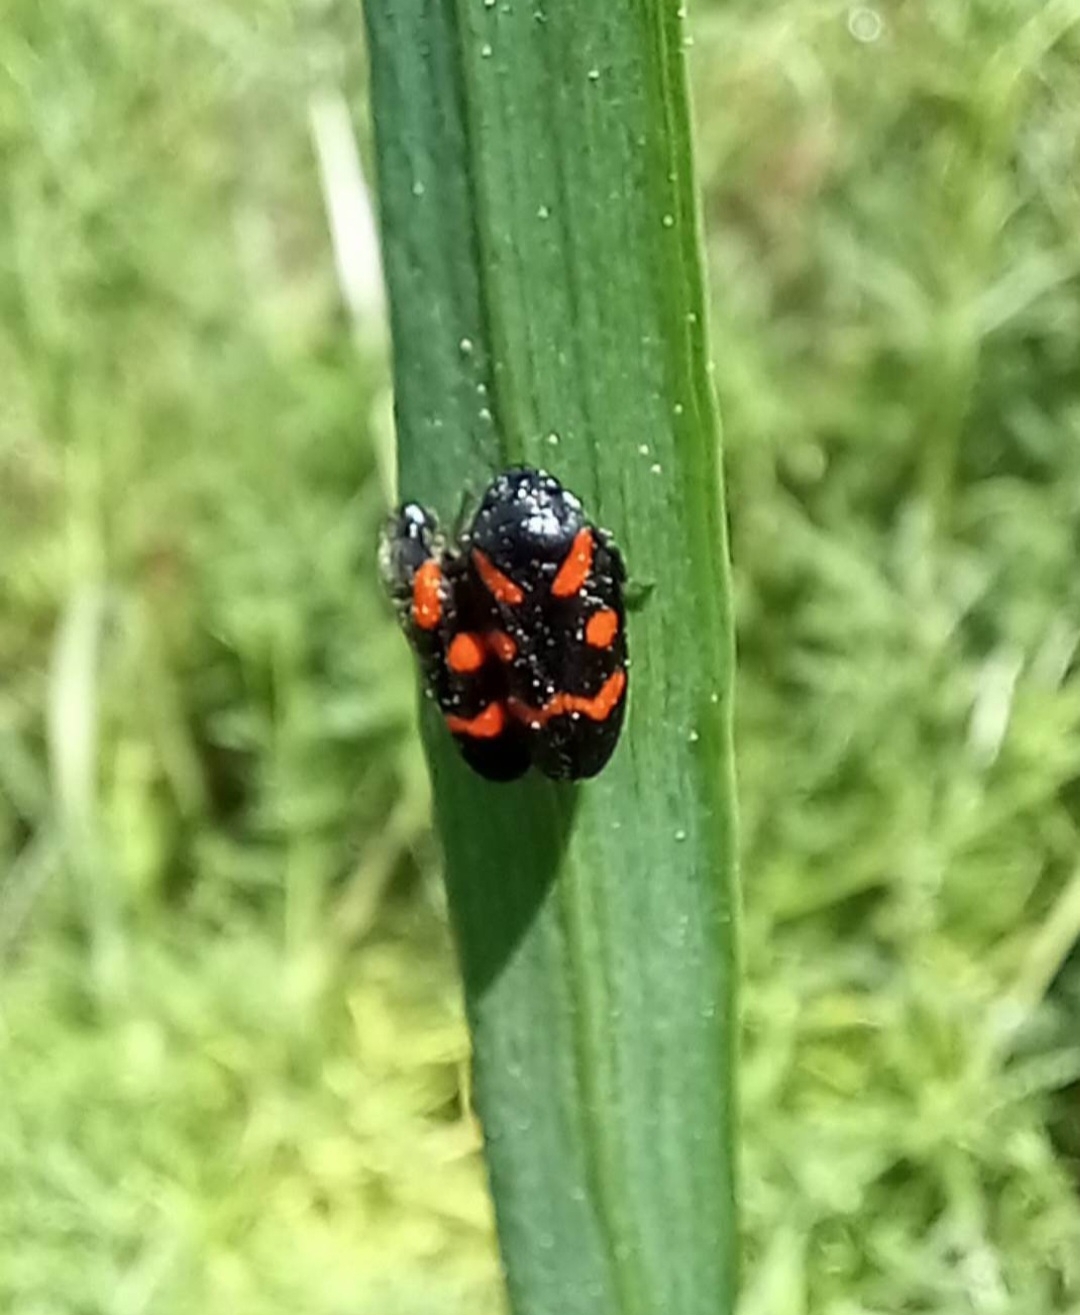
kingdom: Animalia
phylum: Arthropoda
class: Insecta
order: Hemiptera
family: Cercopidae
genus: Cercopis
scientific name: Cercopis sanguinolenta
